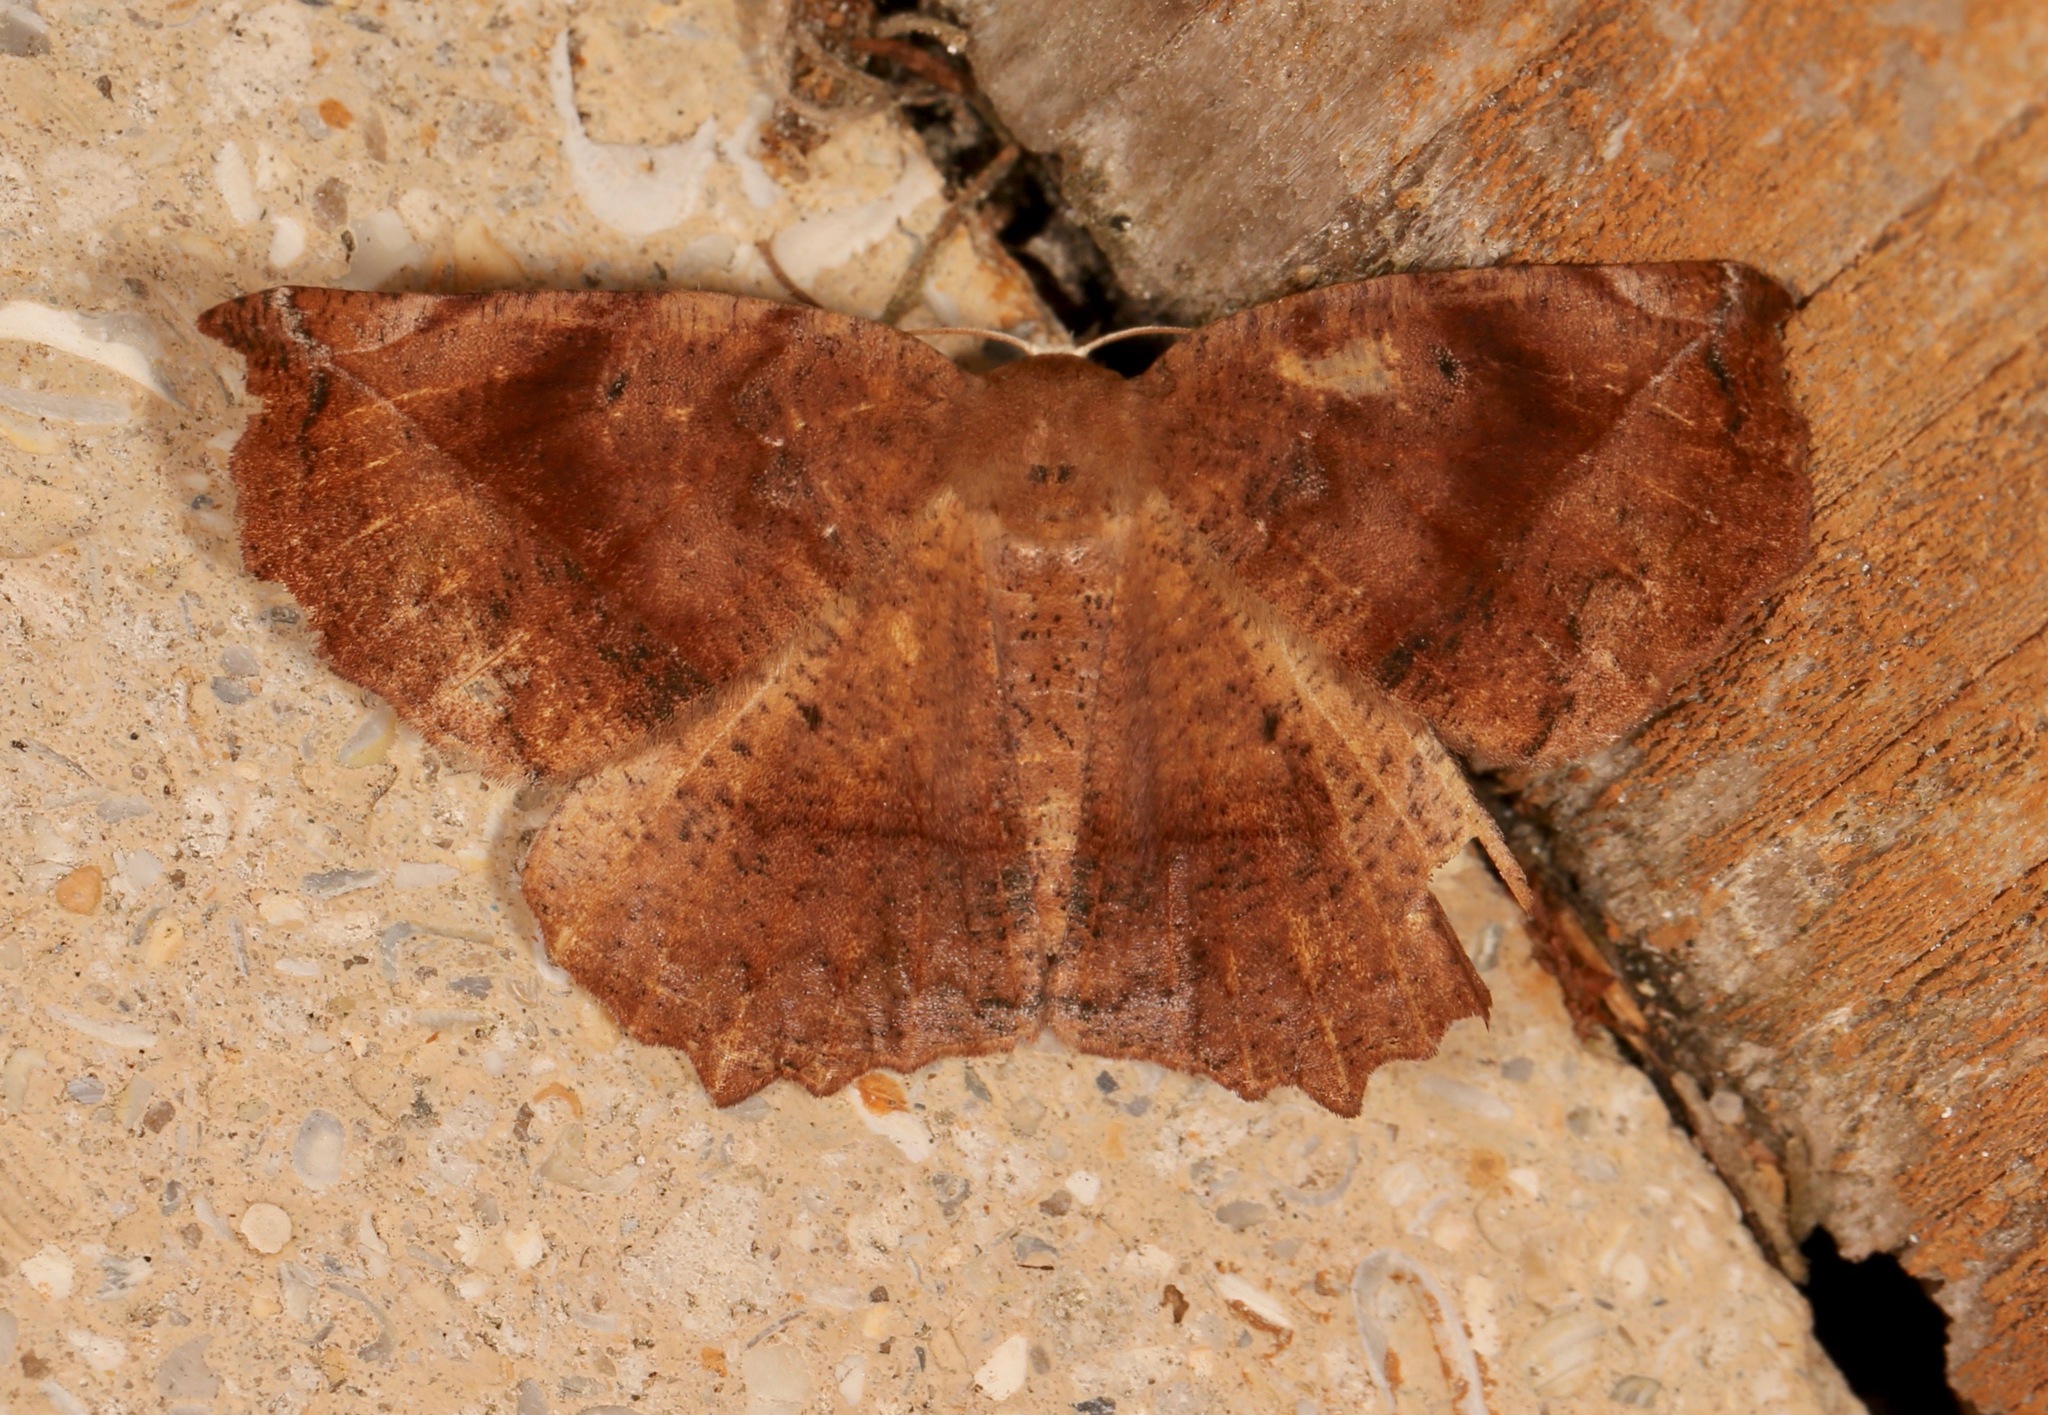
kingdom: Animalia
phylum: Arthropoda
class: Insecta
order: Lepidoptera
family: Geometridae
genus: Eutrapela
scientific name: Eutrapela clemataria
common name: Curved-toothed geometer
